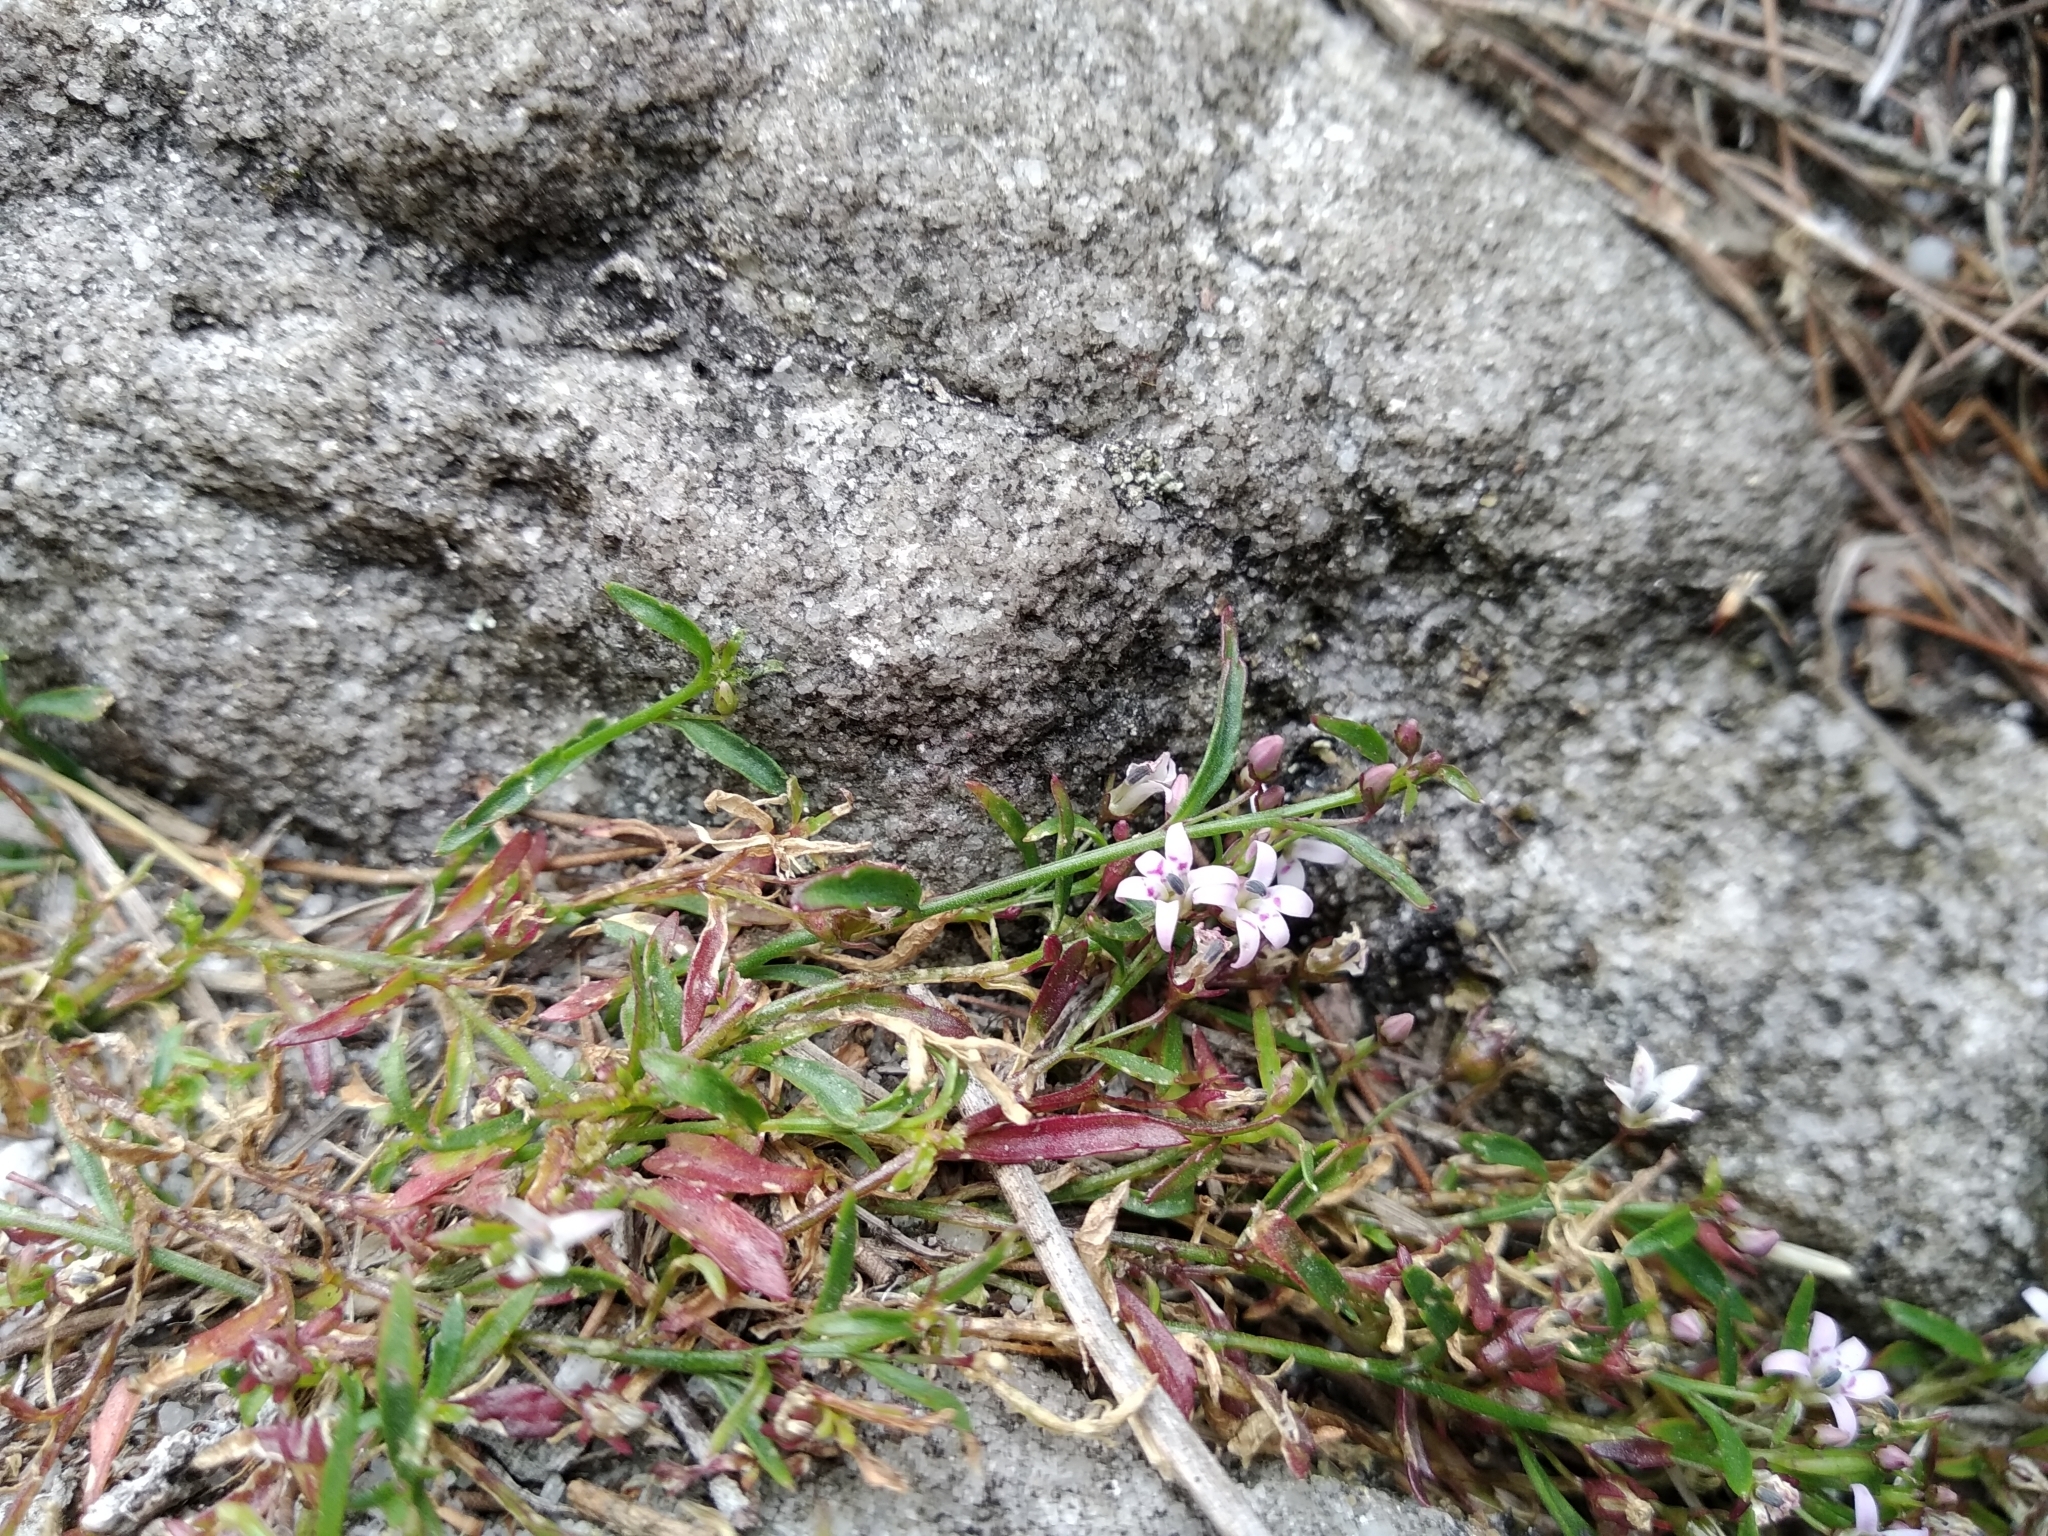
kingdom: Plantae
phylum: Tracheophyta
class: Magnoliopsida
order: Asterales
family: Campanulaceae
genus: Lobelia
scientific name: Lobelia eckloniana
